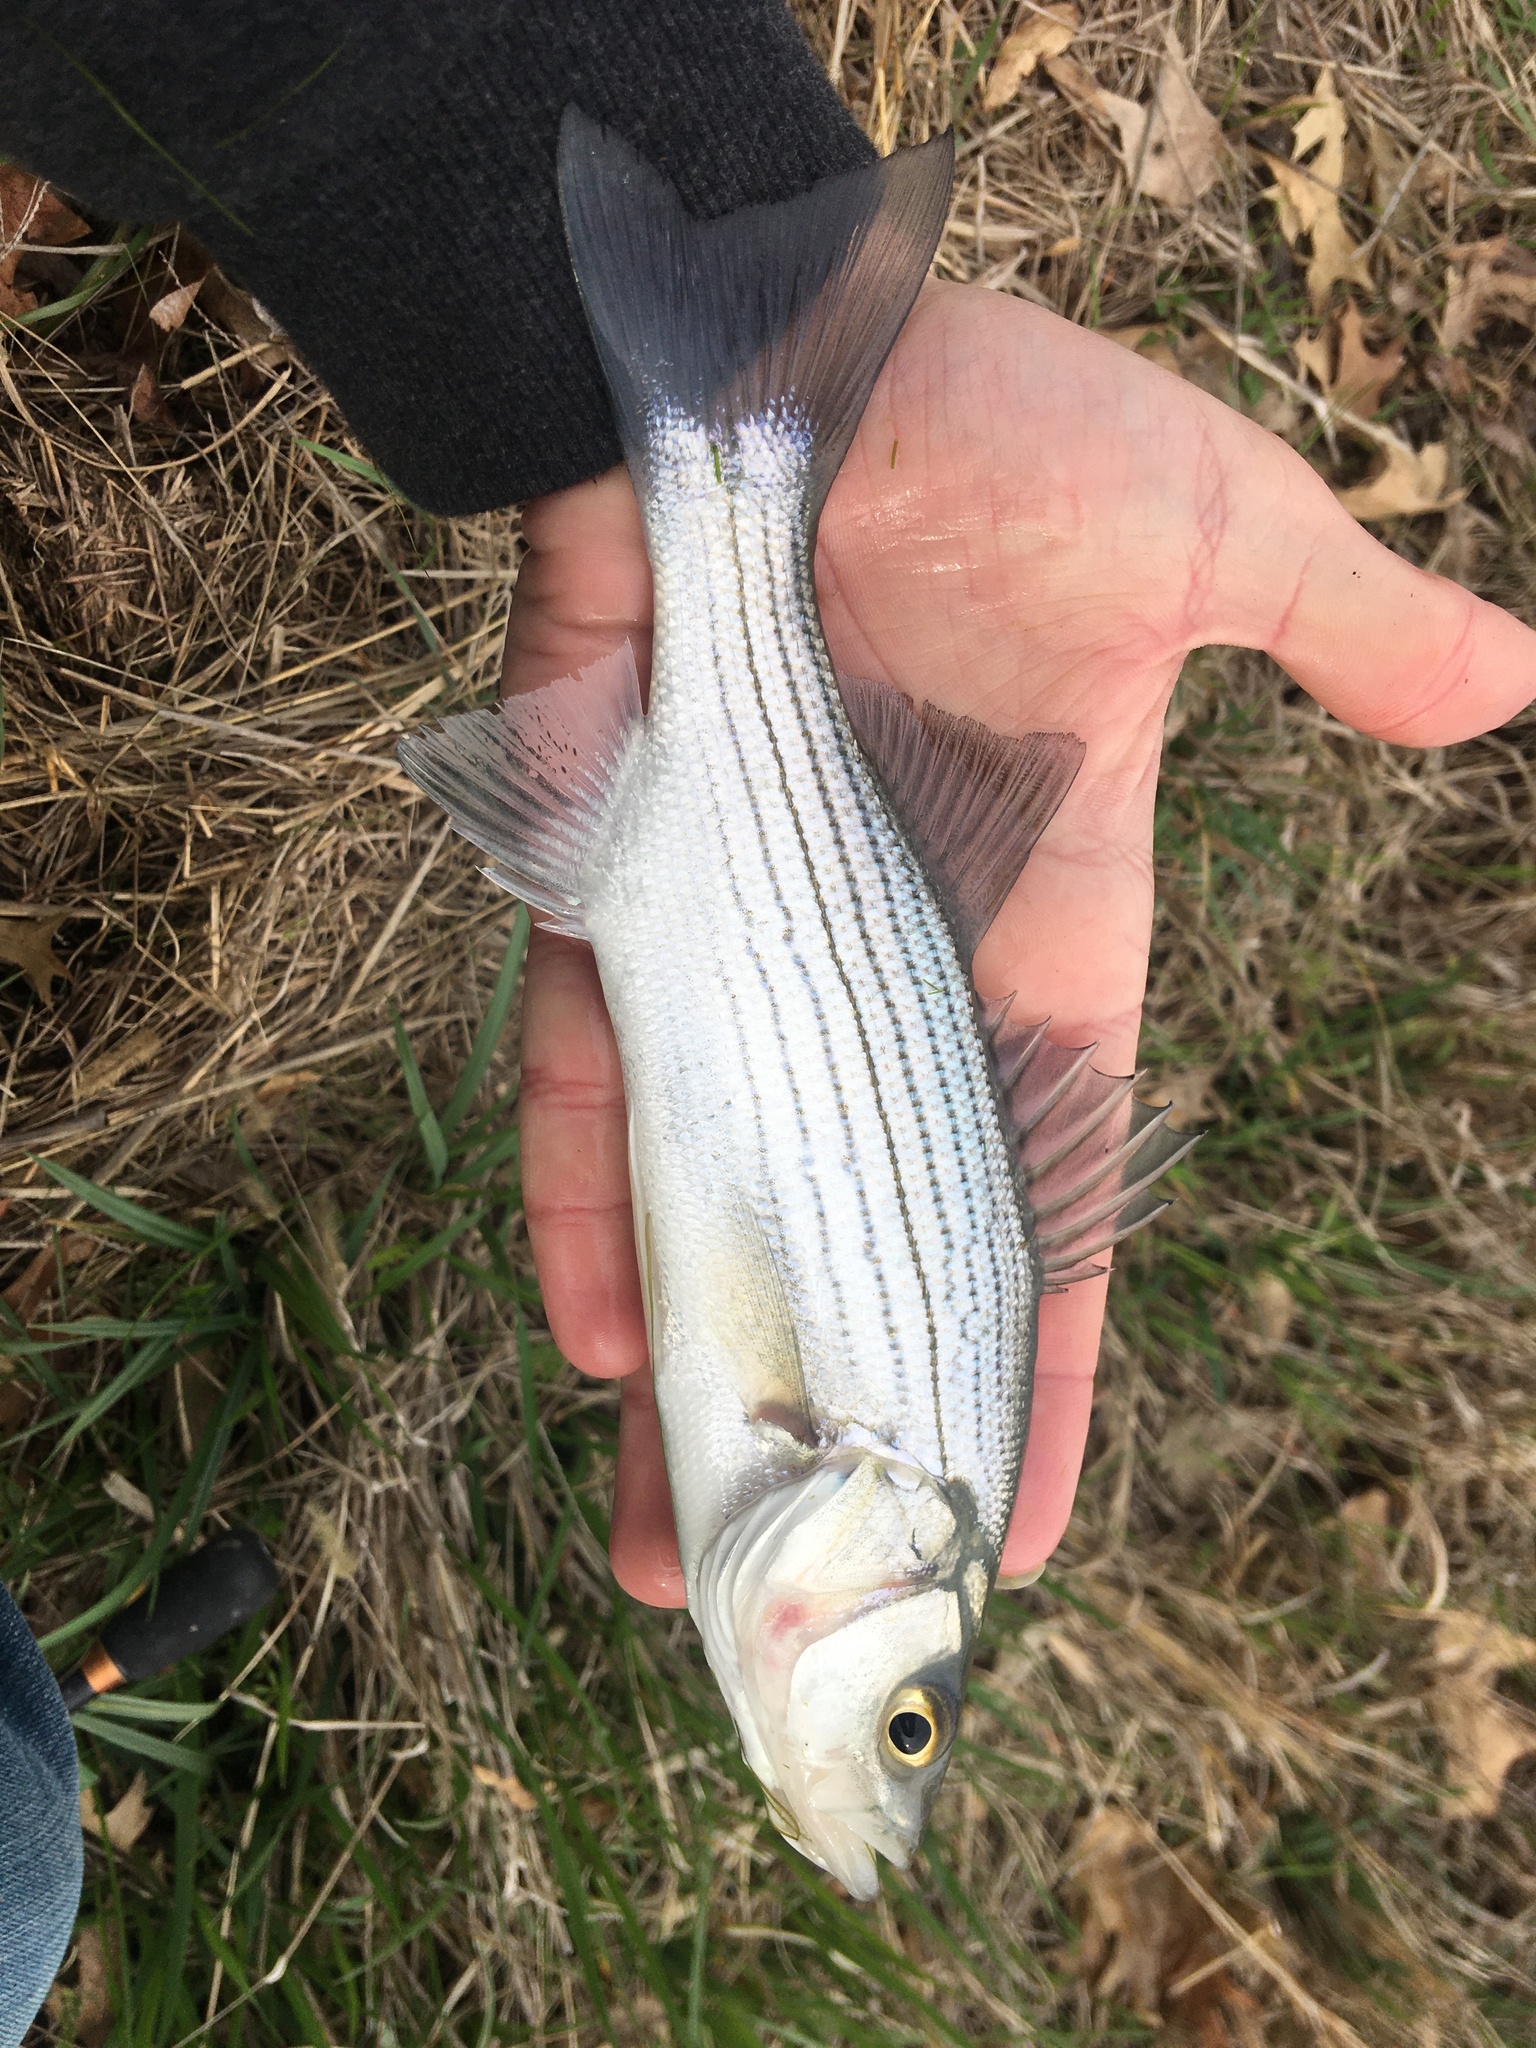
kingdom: Animalia
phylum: Chordata
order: Perciformes
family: Moronidae
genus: Morone
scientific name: Morone
